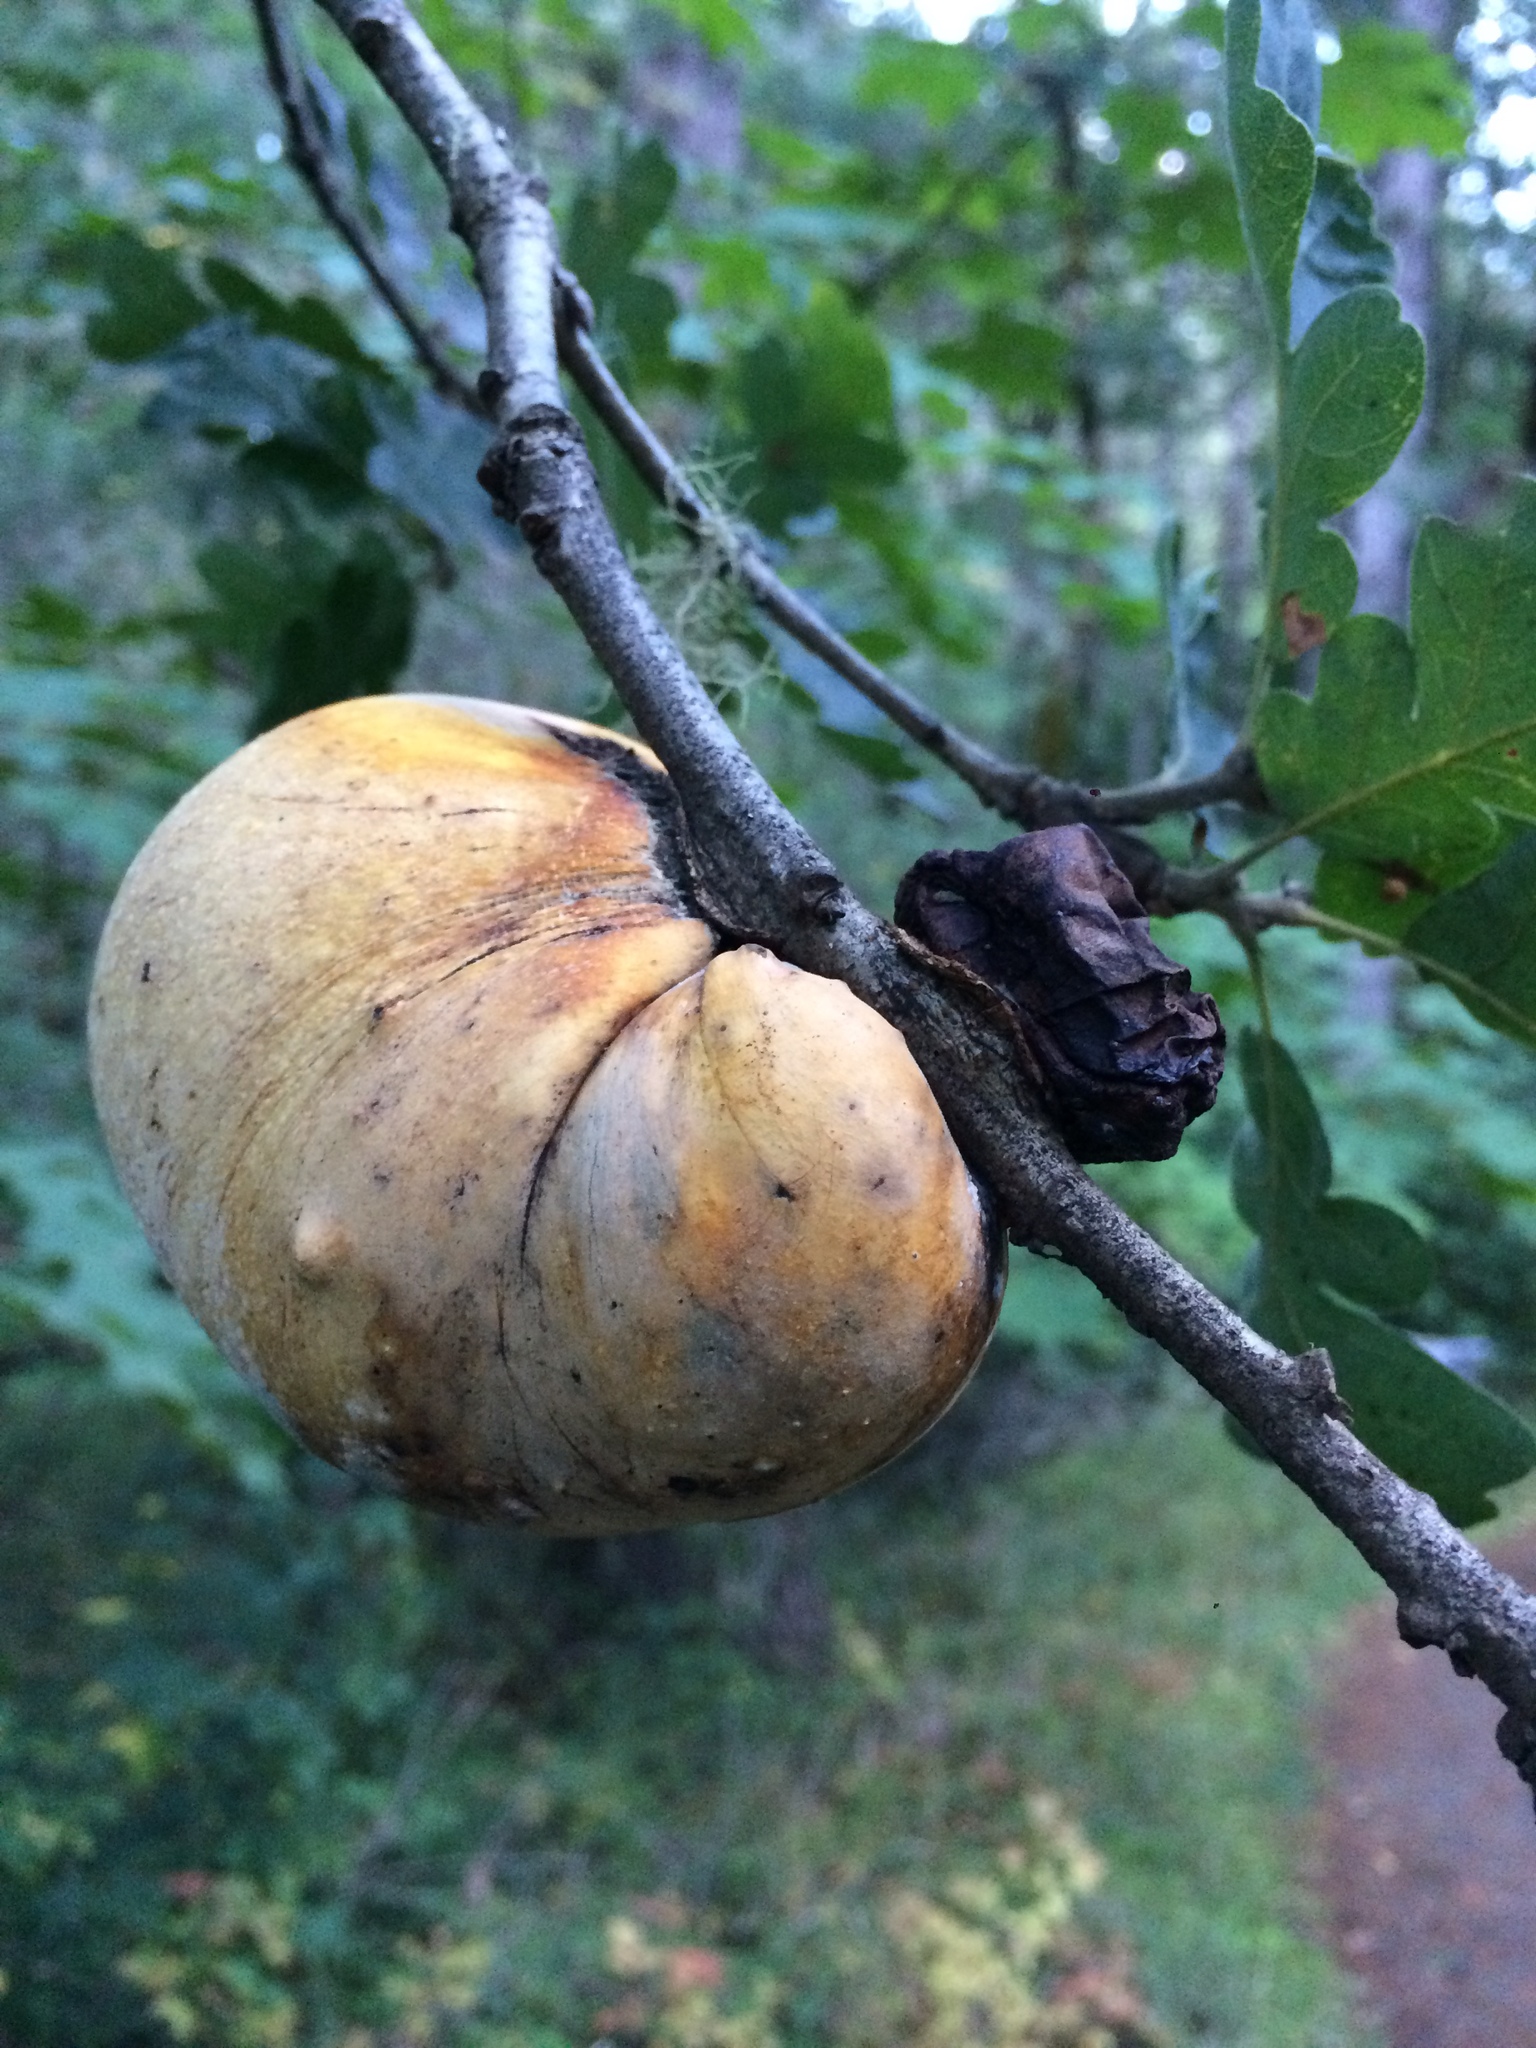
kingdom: Animalia
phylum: Arthropoda
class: Insecta
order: Hymenoptera
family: Cynipidae
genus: Andricus
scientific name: Andricus quercuscalifornicus
